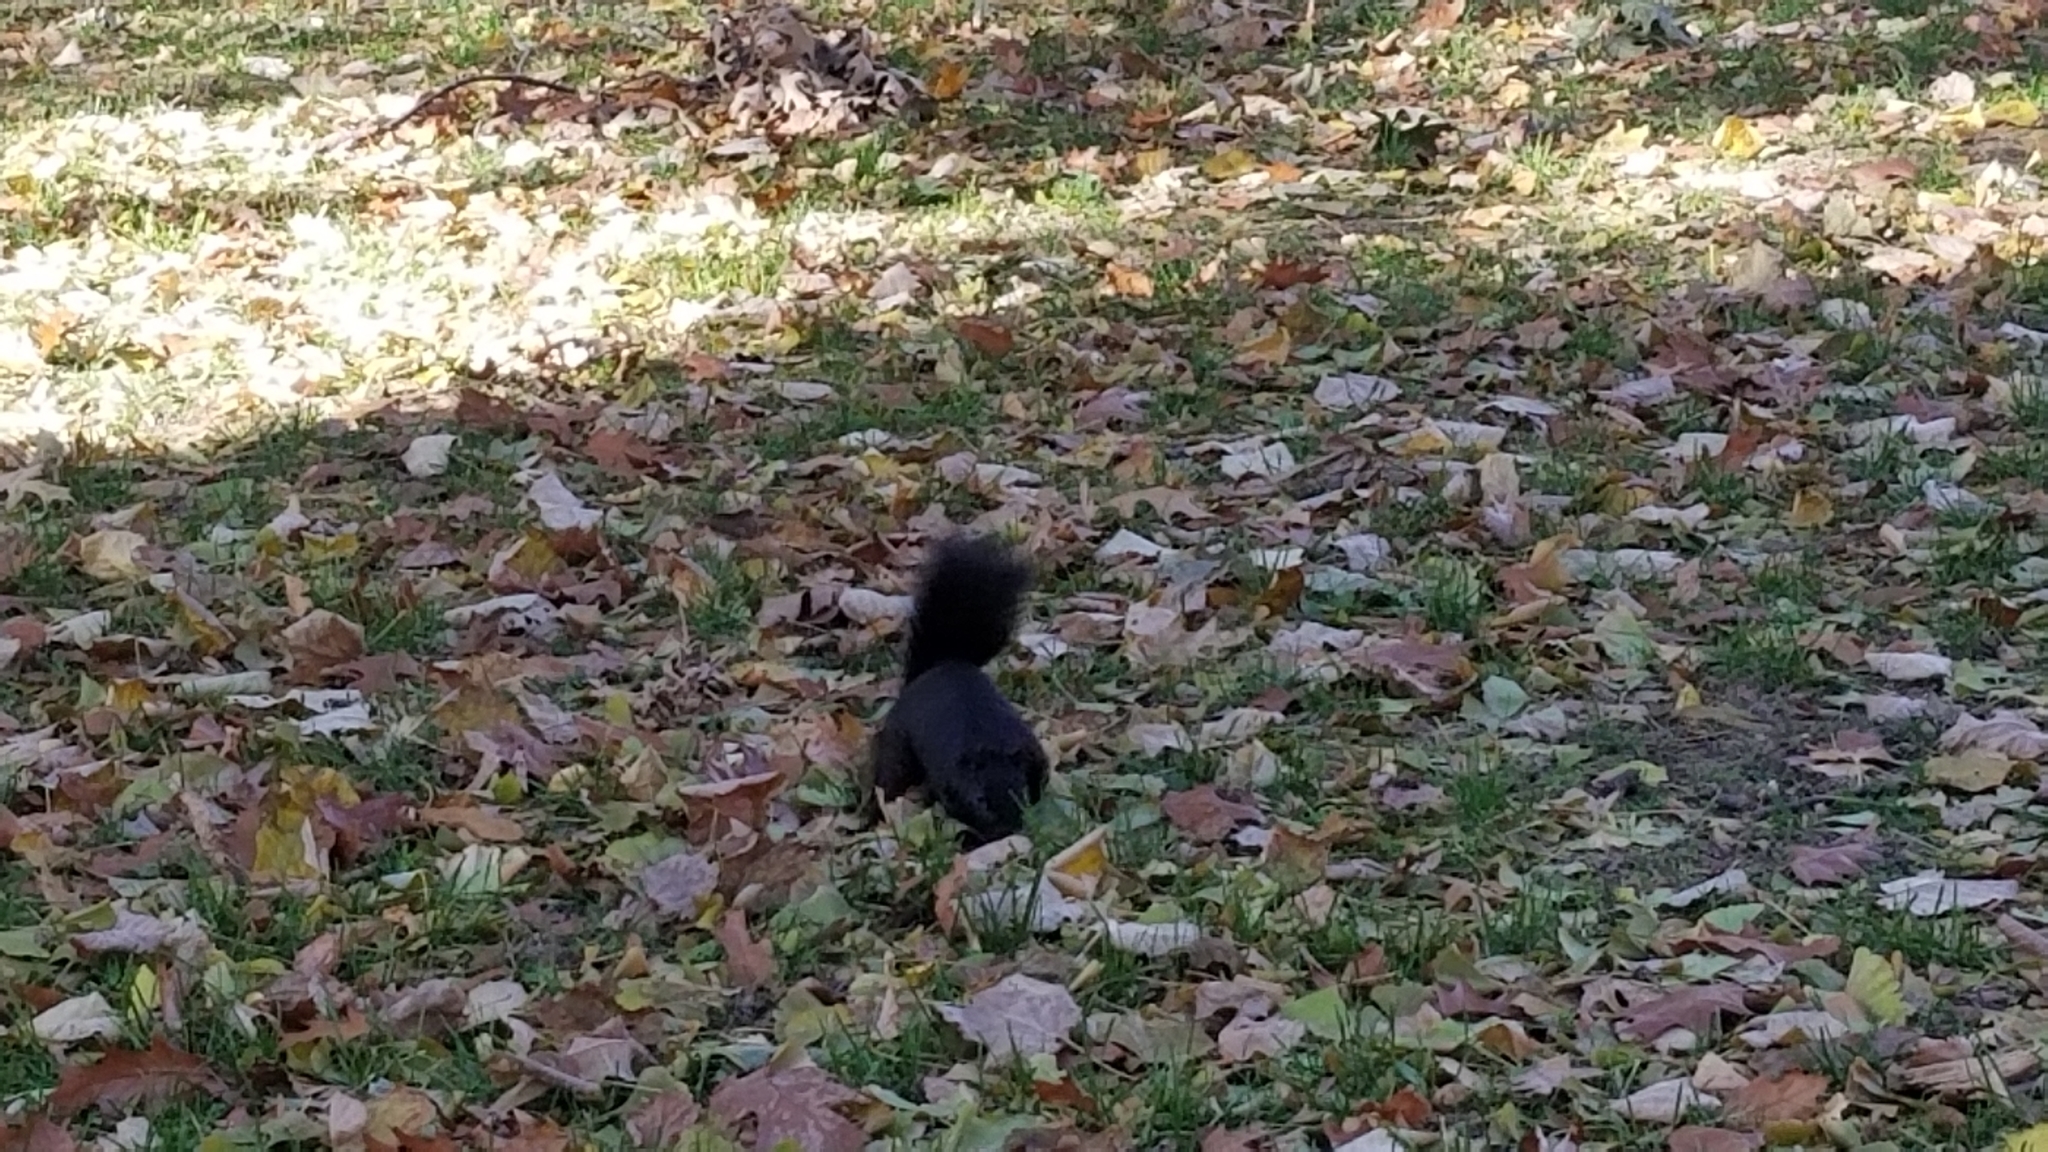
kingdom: Animalia
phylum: Chordata
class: Mammalia
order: Rodentia
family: Sciuridae
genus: Sciurus
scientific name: Sciurus carolinensis
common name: Eastern gray squirrel
